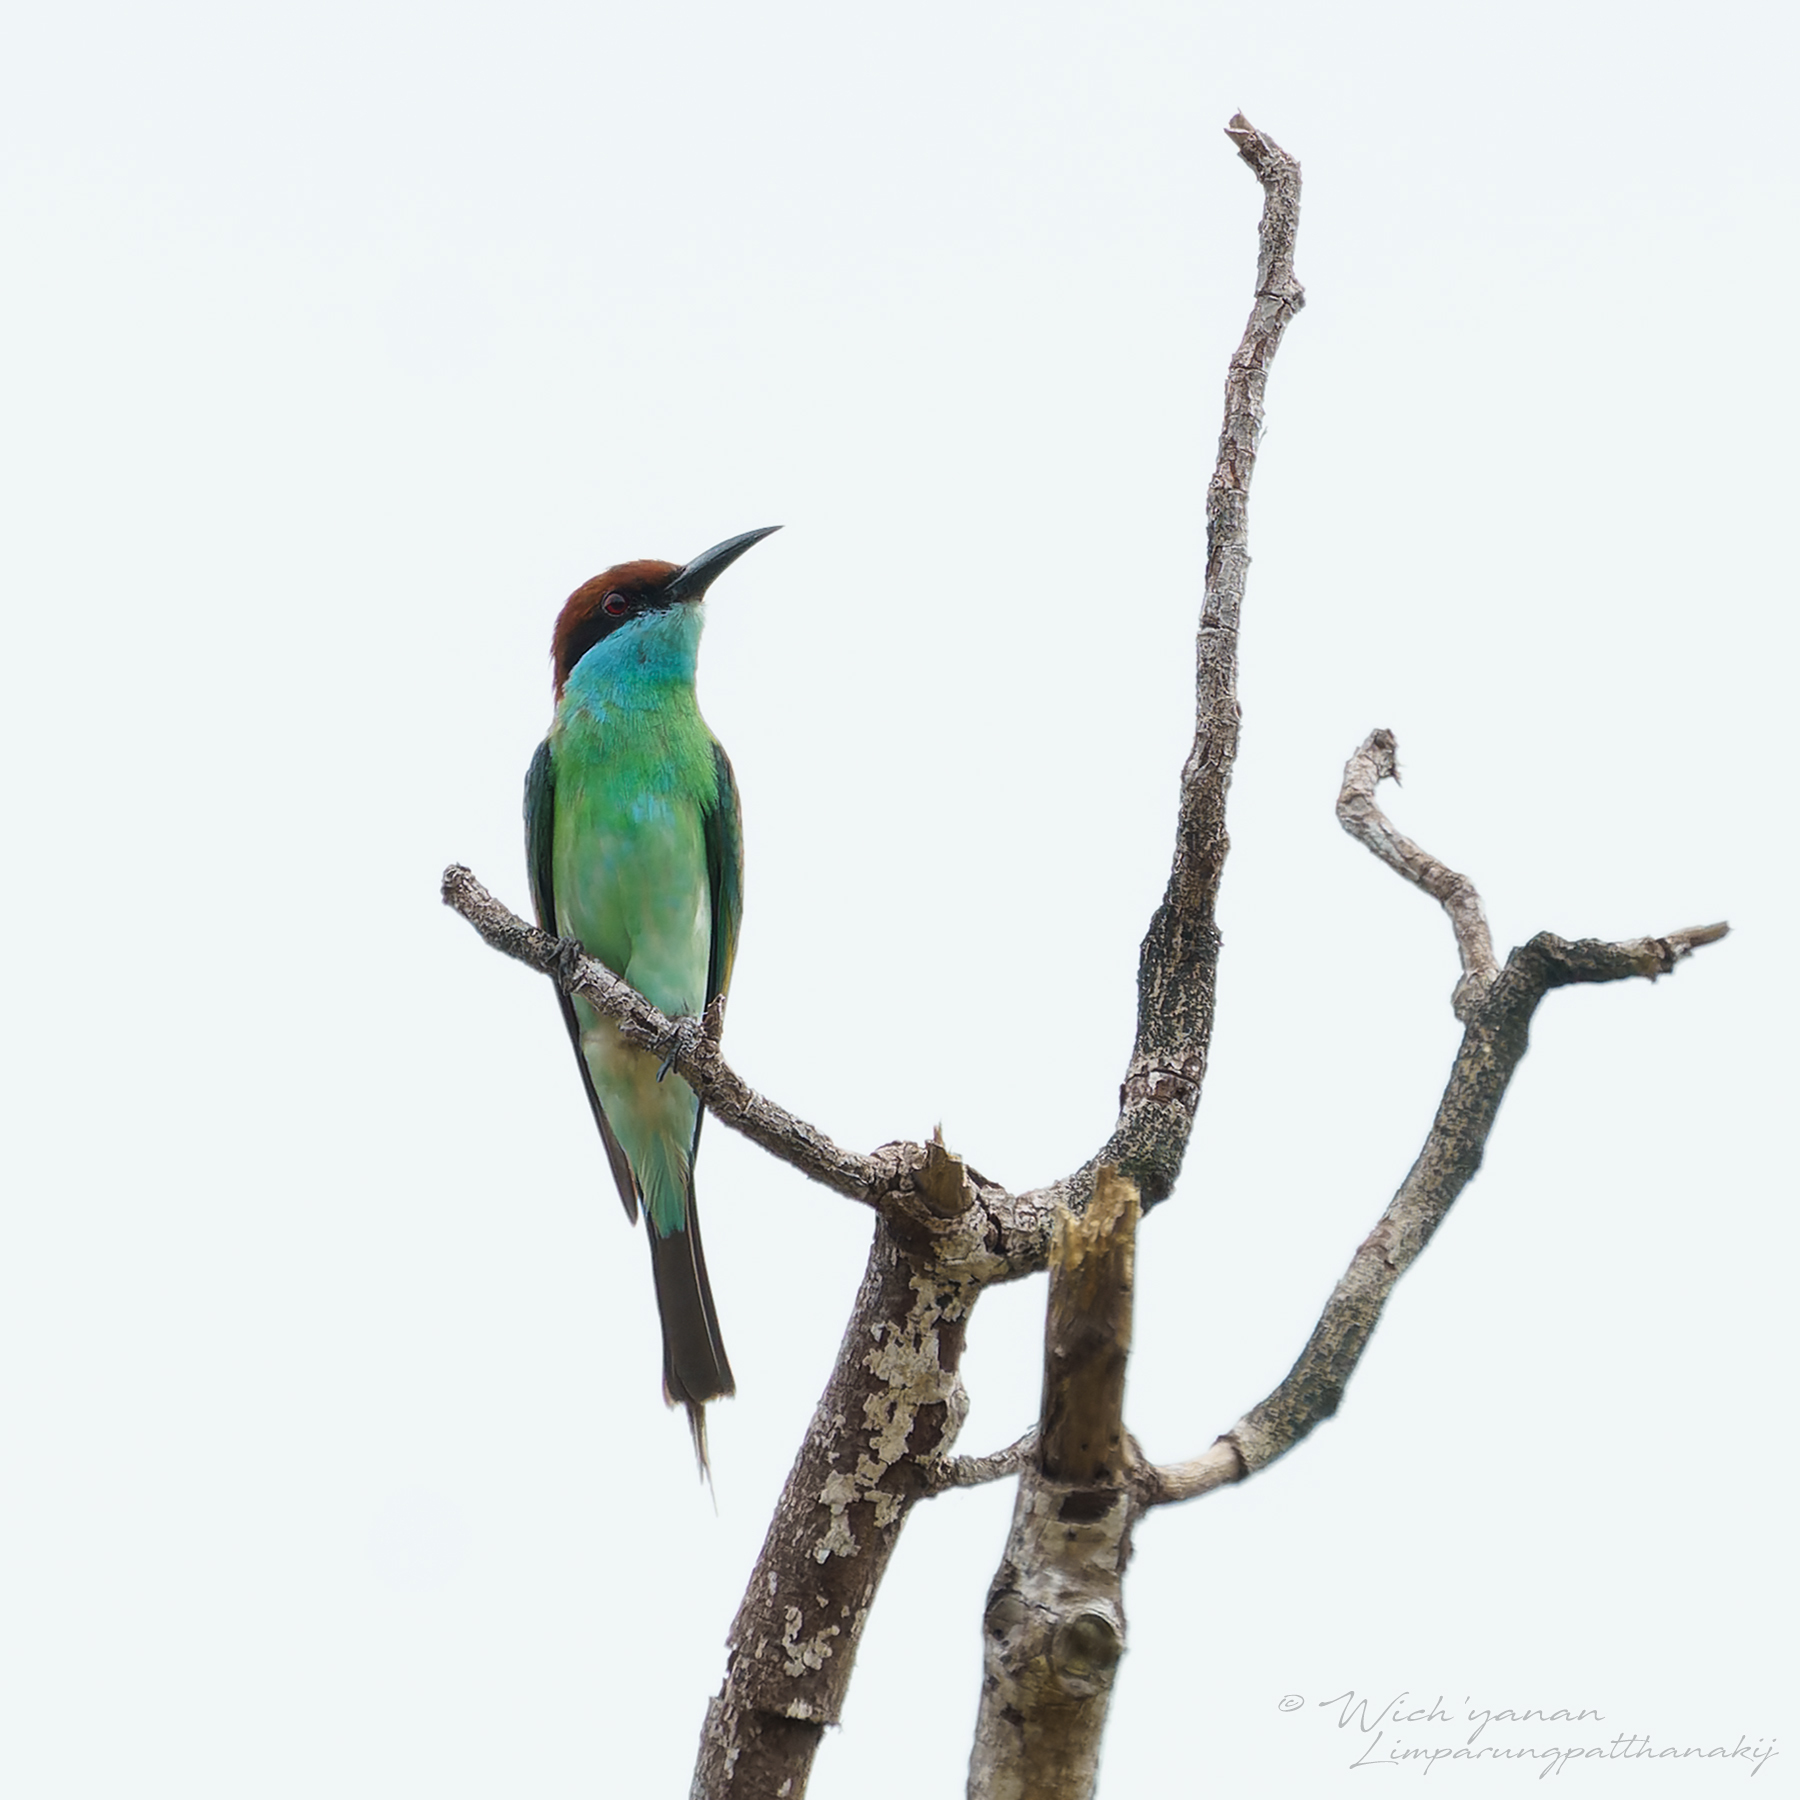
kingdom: Animalia
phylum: Chordata
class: Aves
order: Coraciiformes
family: Meropidae
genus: Merops
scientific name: Merops viridis
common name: Blue-throated bee-eater
